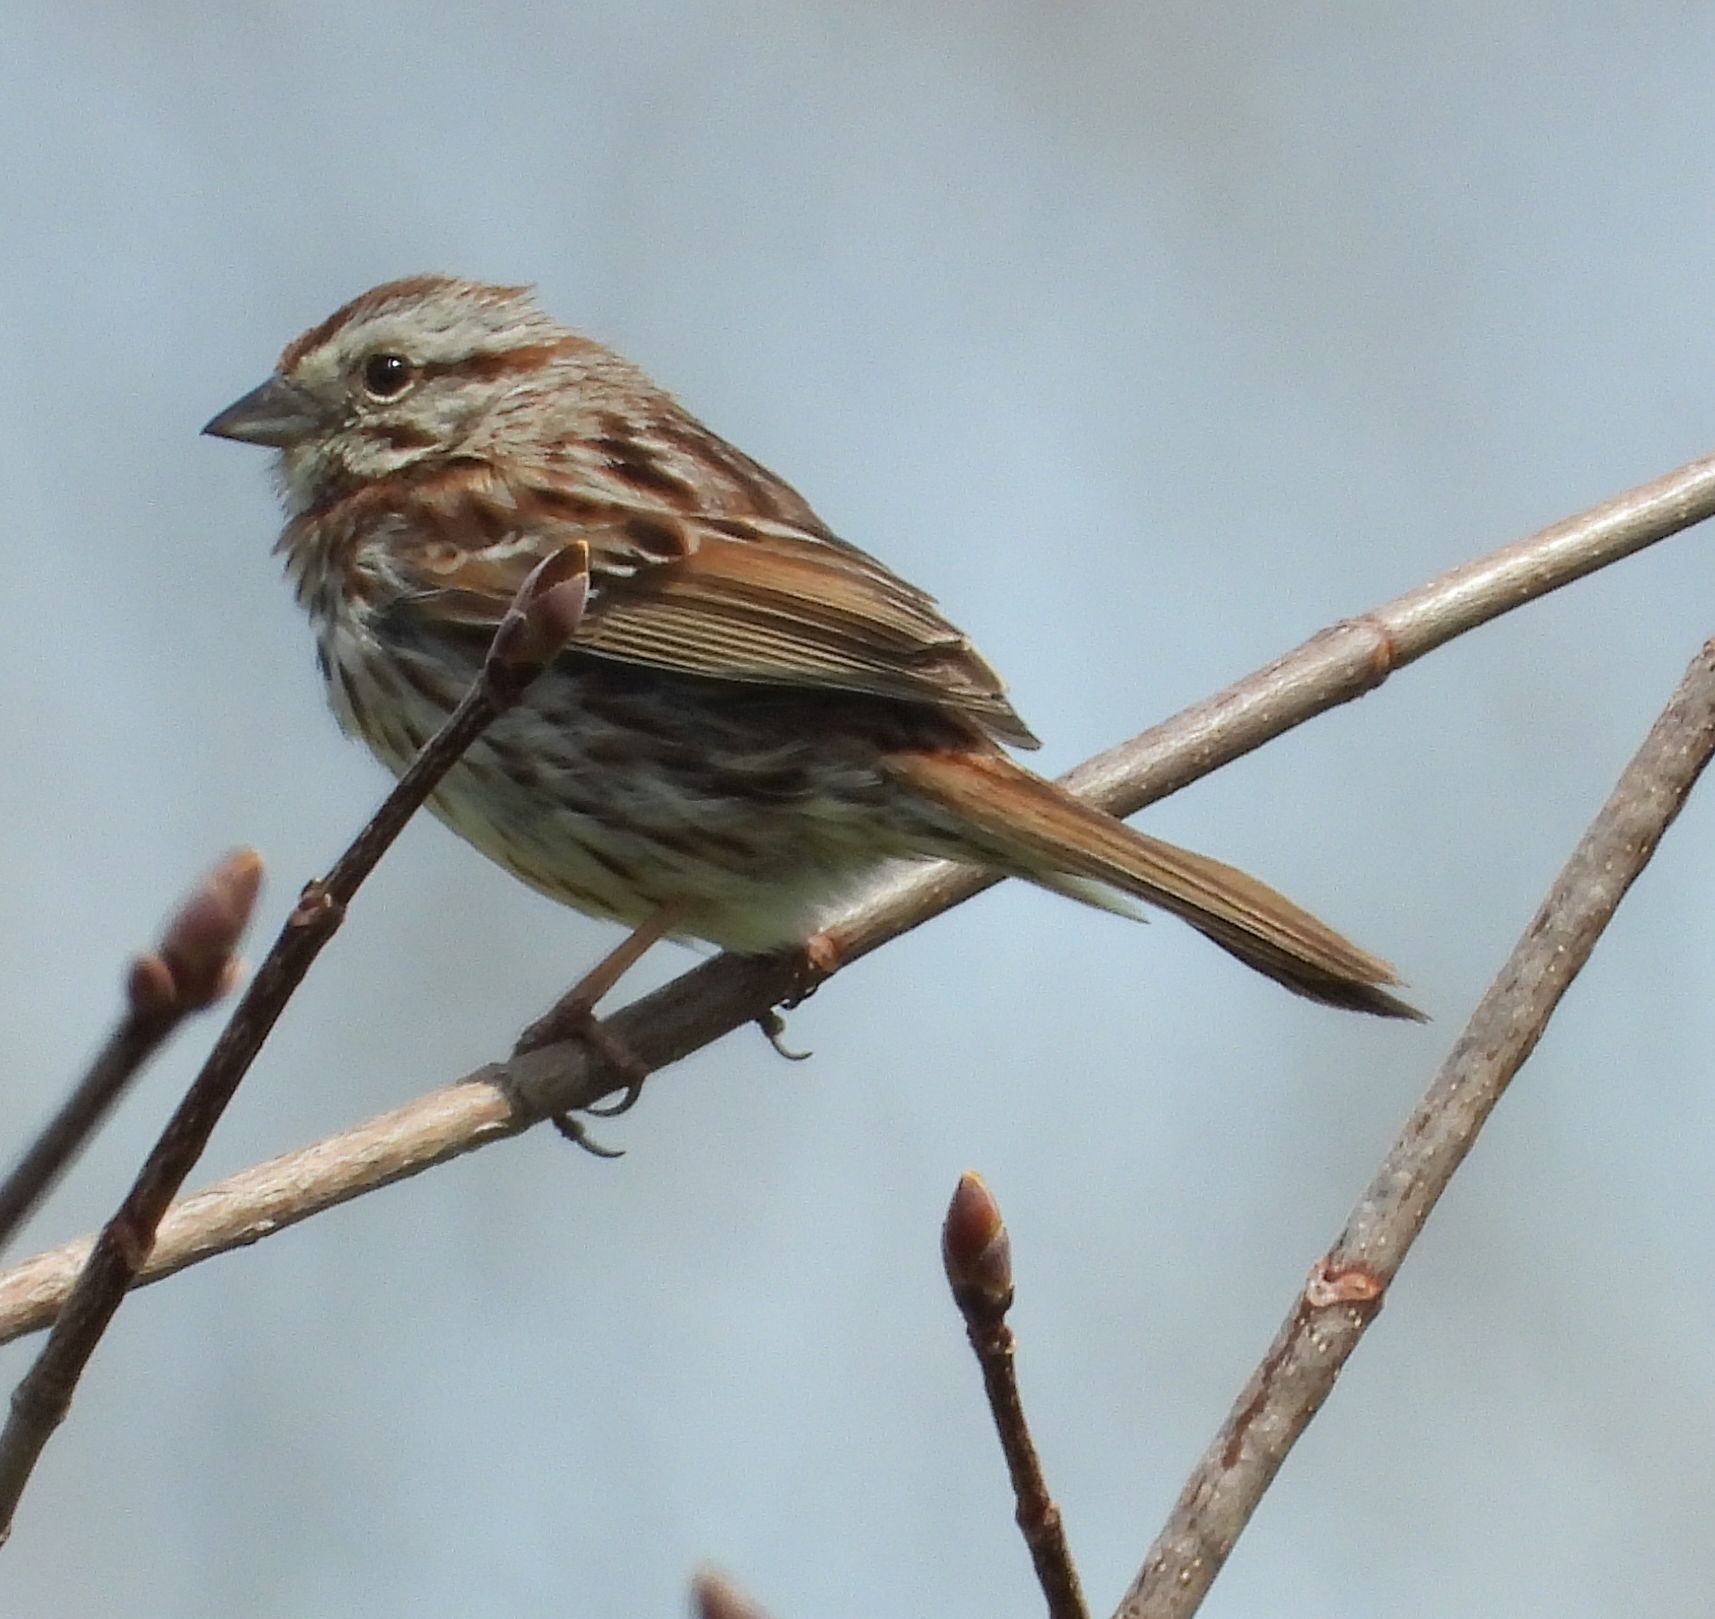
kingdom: Animalia
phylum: Chordata
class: Aves
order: Passeriformes
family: Passerellidae
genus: Melospiza
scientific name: Melospiza melodia
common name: Song sparrow
